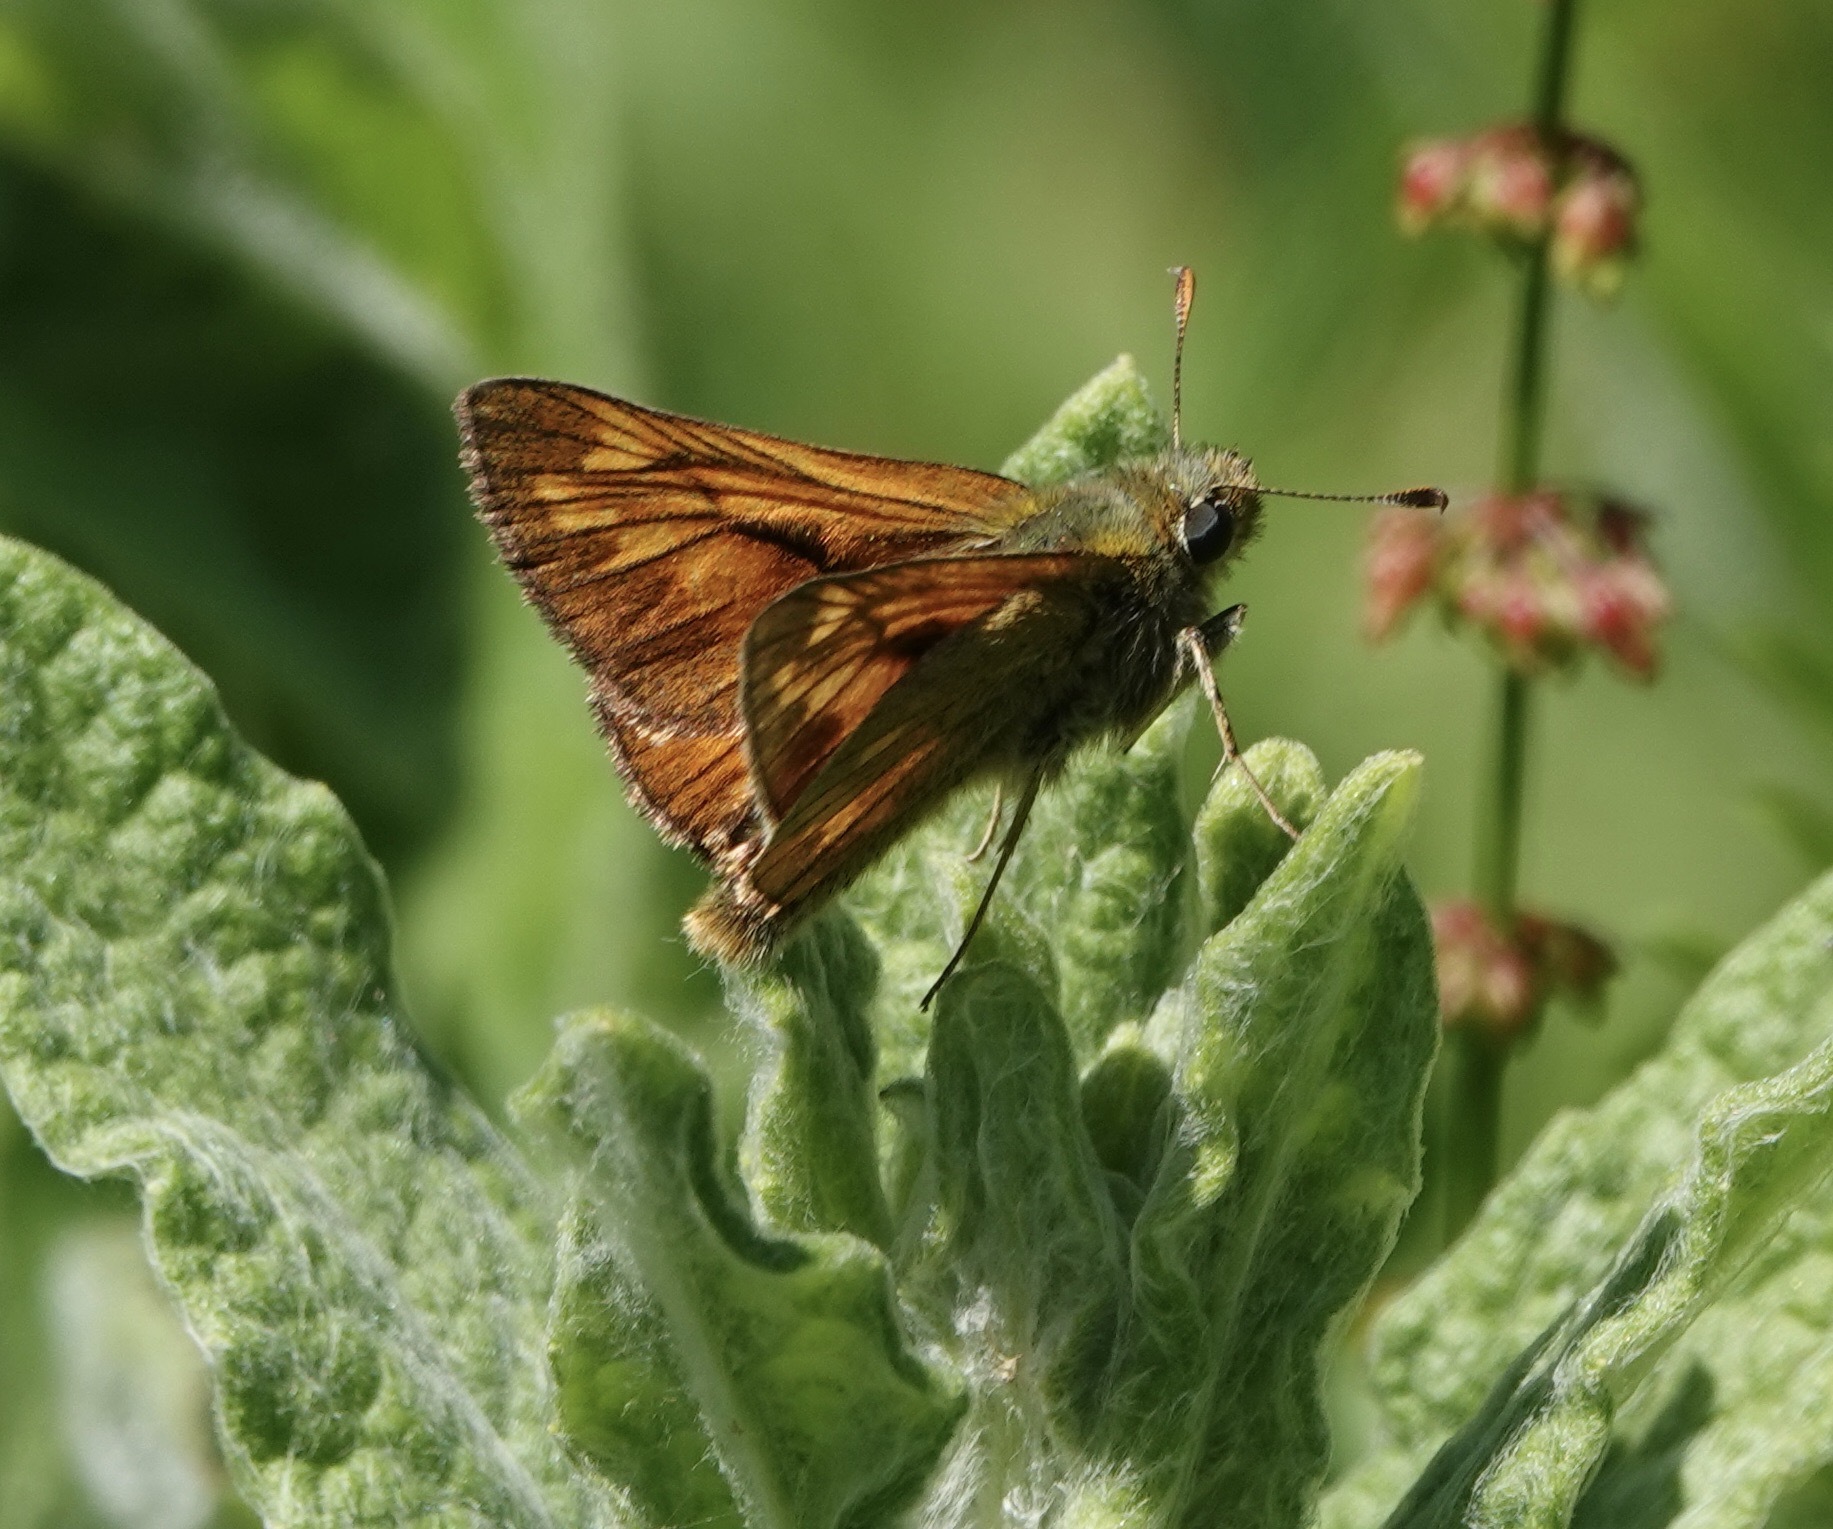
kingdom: Animalia
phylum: Arthropoda
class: Insecta
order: Lepidoptera
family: Hesperiidae
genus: Ochlodes
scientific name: Ochlodes venata
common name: Large skipper
